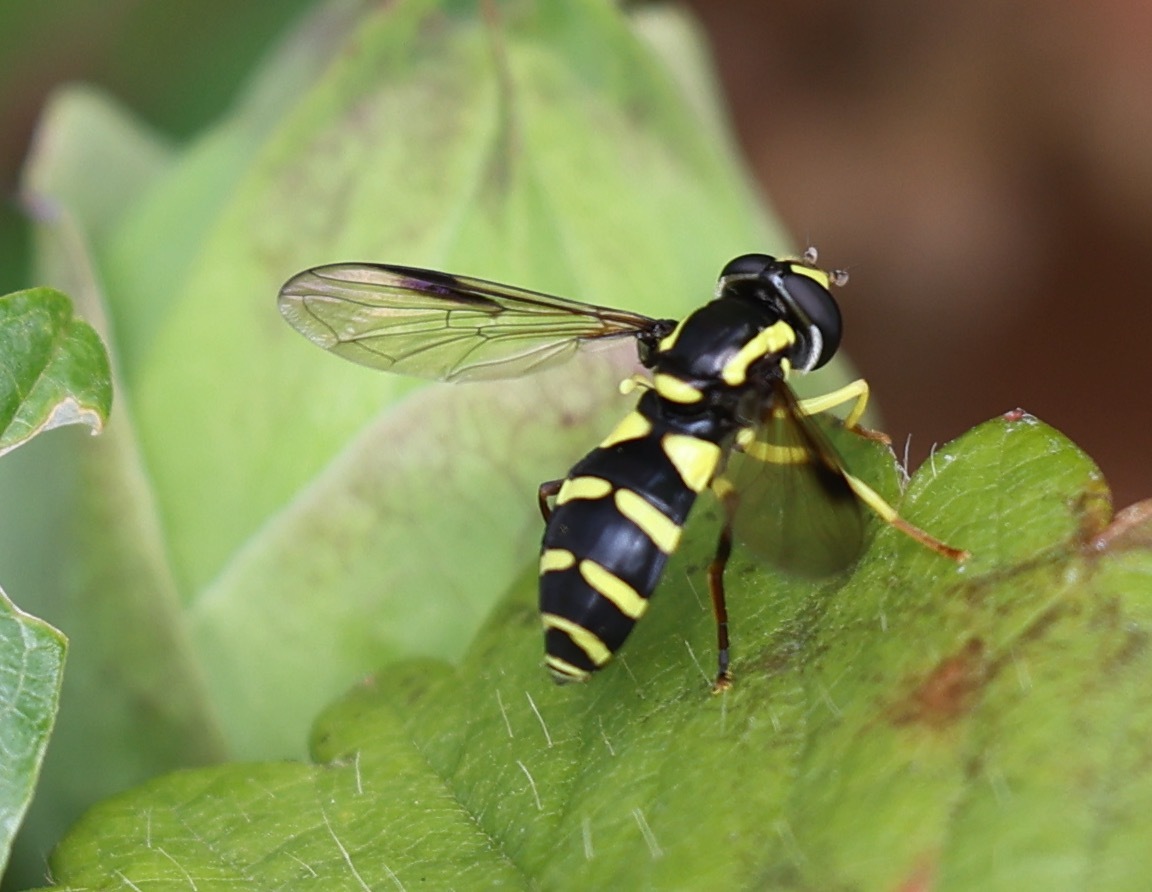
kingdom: Animalia
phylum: Arthropoda
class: Insecta
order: Diptera
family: Syrphidae
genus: Philhelius
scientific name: Philhelius pedissequum
